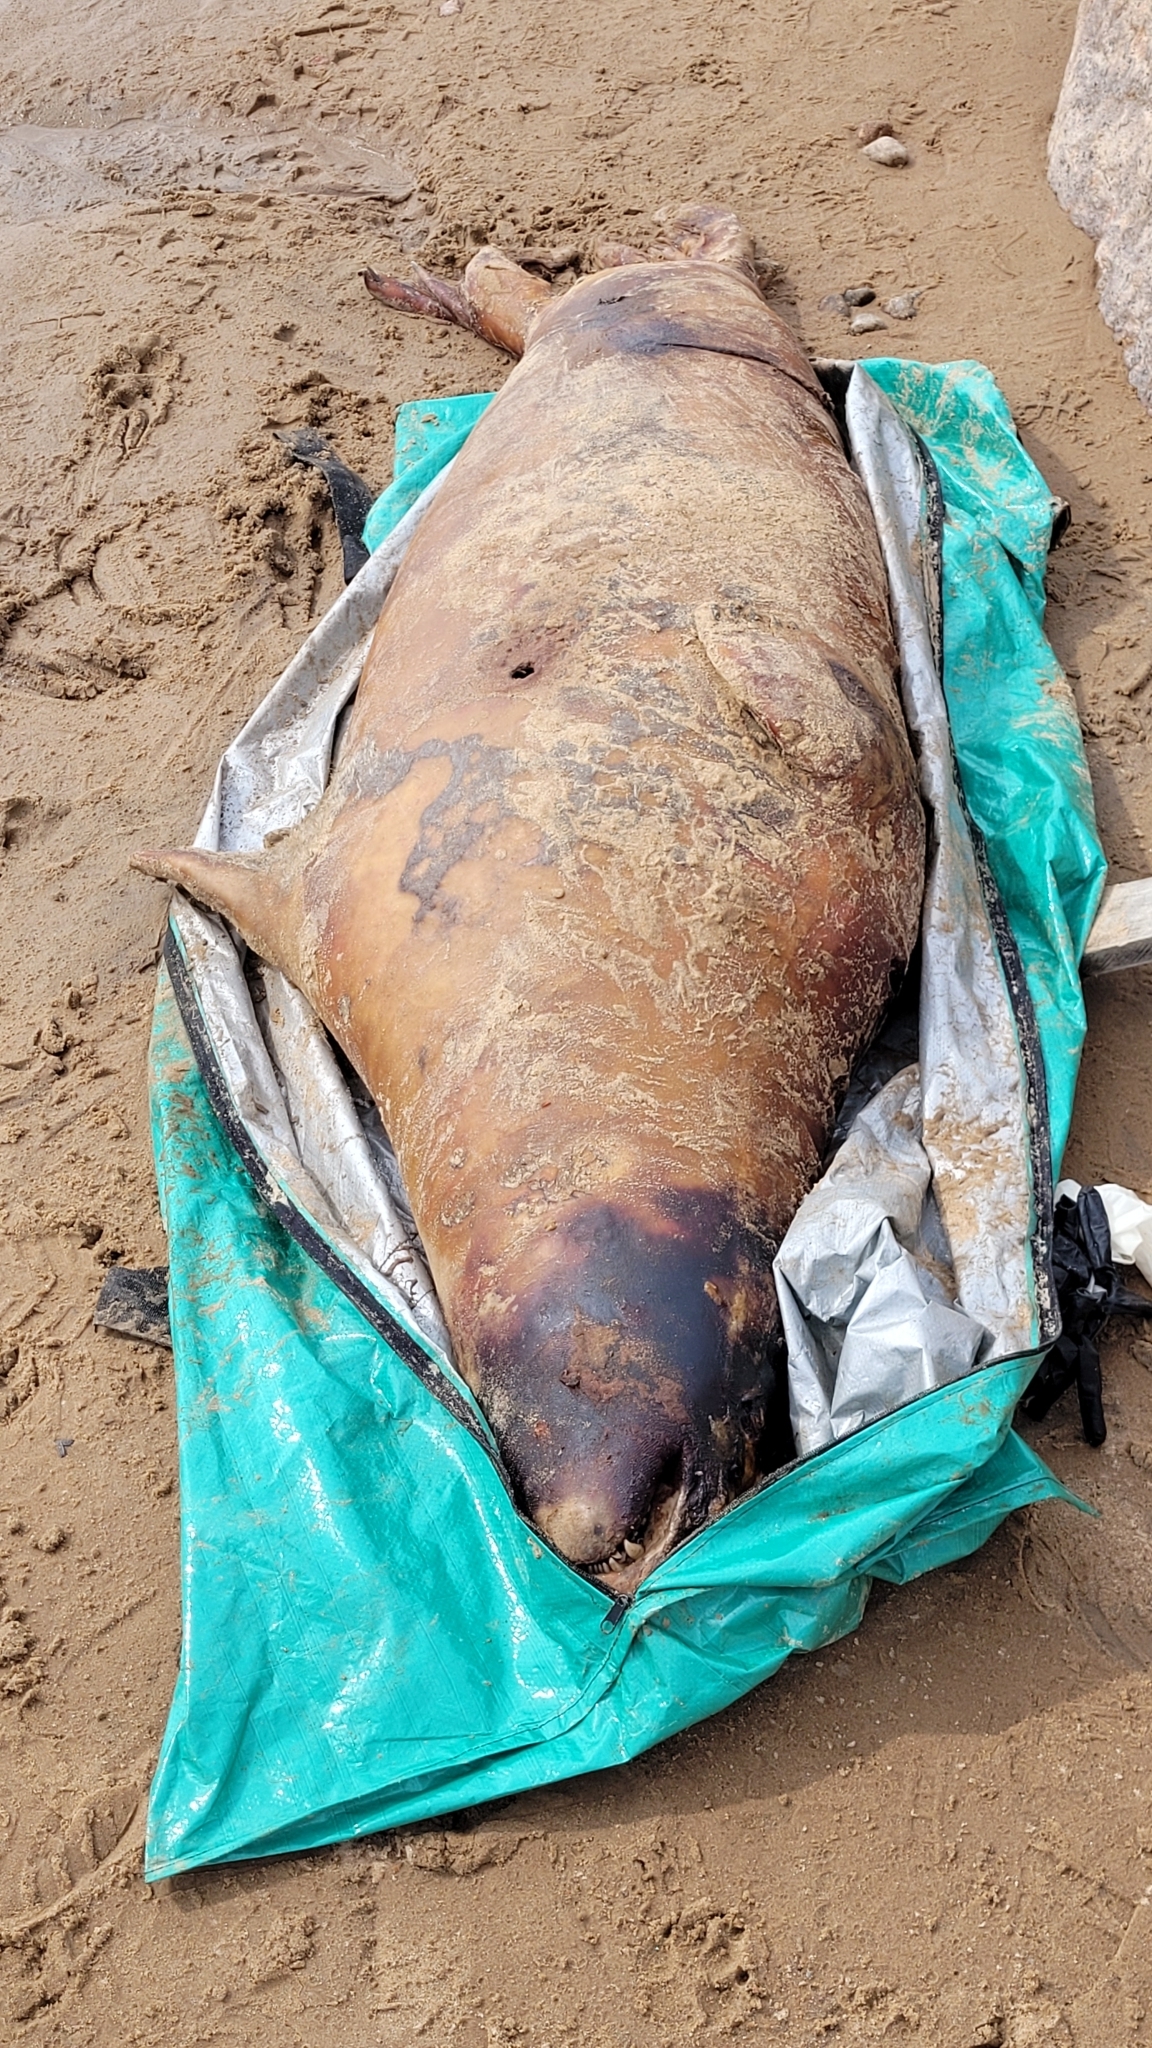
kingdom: Animalia
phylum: Chordata
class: Mammalia
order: Carnivora
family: Phocidae
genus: Halichoerus
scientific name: Halichoerus grypus
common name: Grey seal
